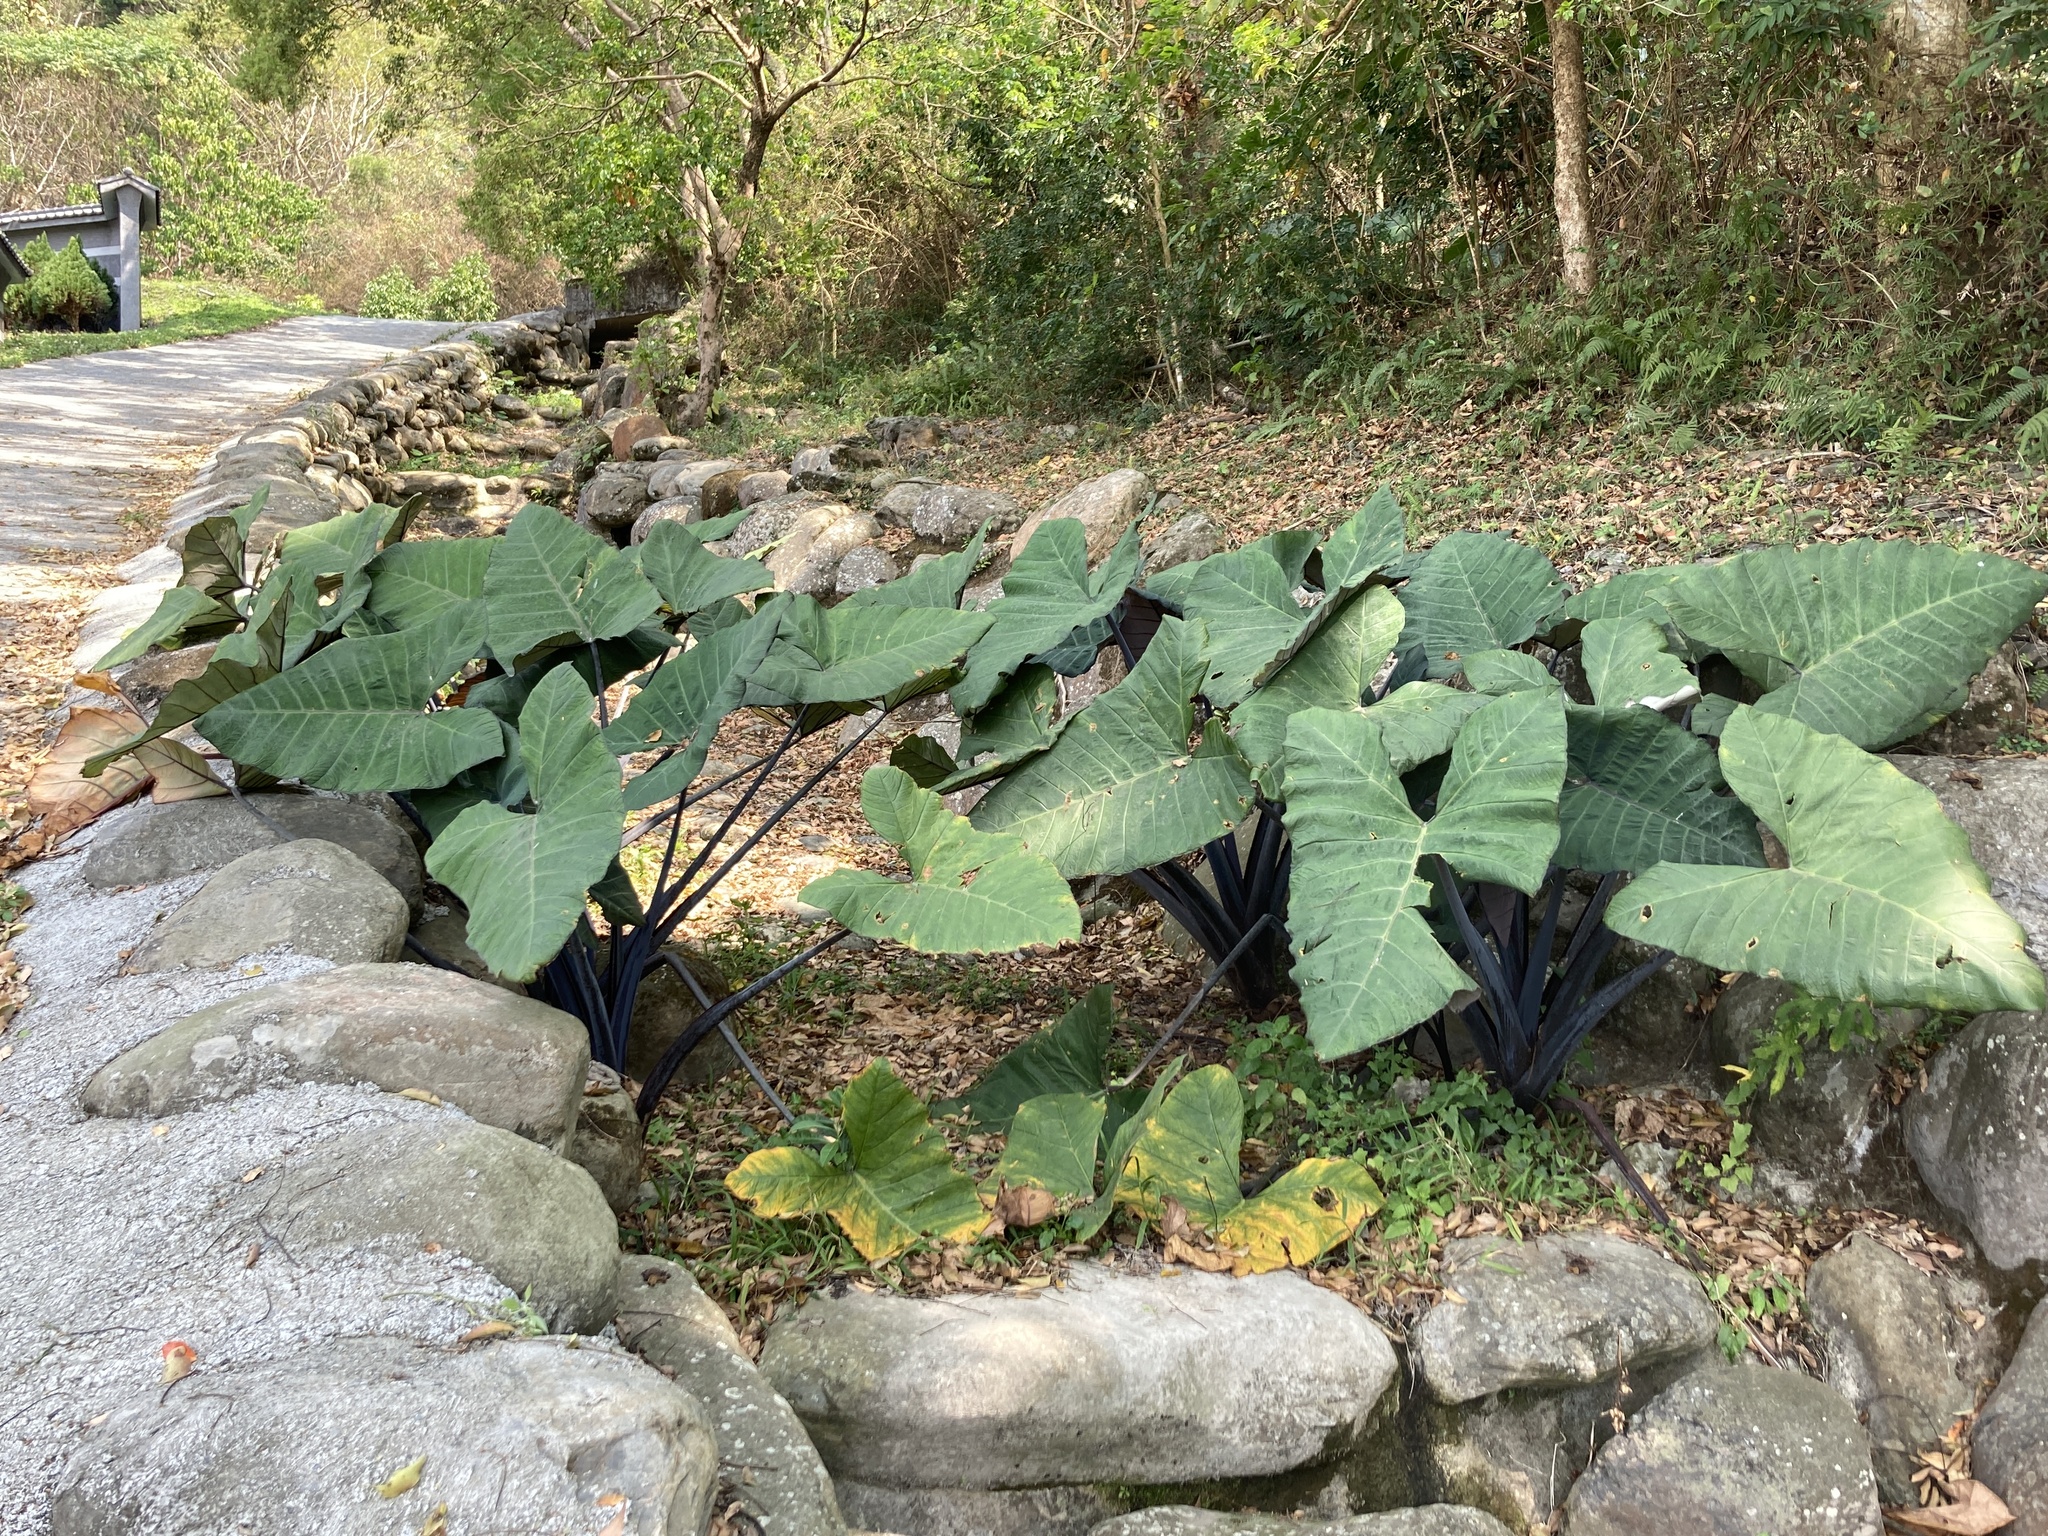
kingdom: Plantae
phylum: Tracheophyta
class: Liliopsida
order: Alismatales
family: Araceae
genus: Xanthosoma
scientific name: Xanthosoma sagittifolium
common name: Arrowleaf elephant's ear
